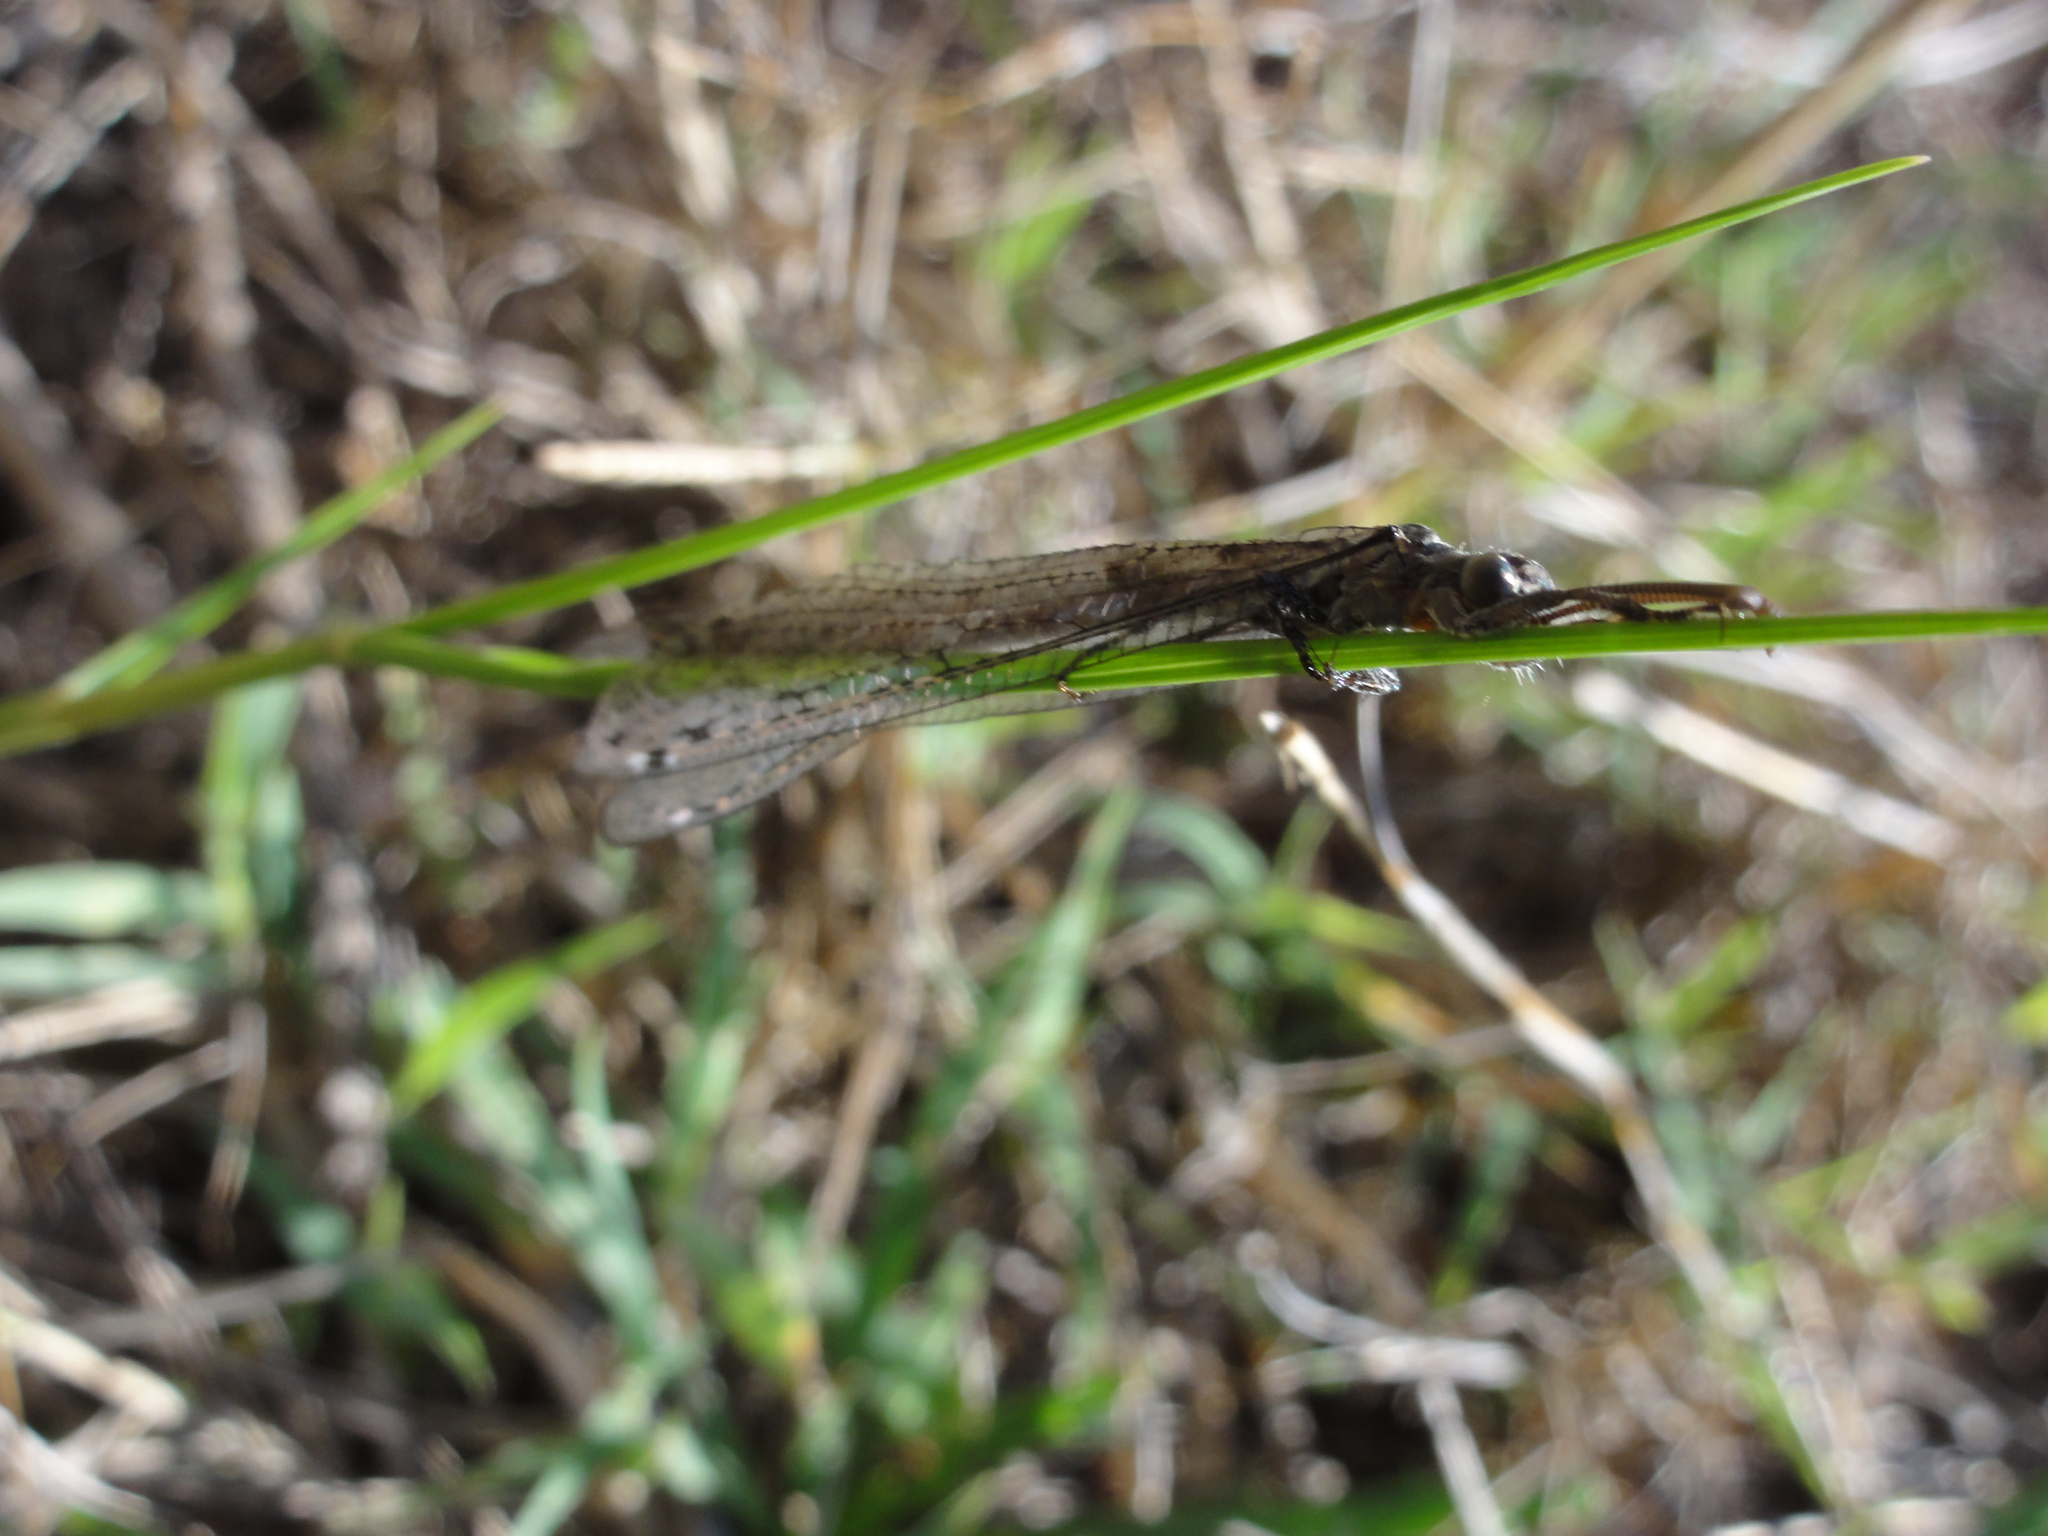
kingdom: Animalia
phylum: Arthropoda
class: Insecta
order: Neuroptera
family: Myrmeleontidae
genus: Distoleon
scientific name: Distoleon tetragrammicus
